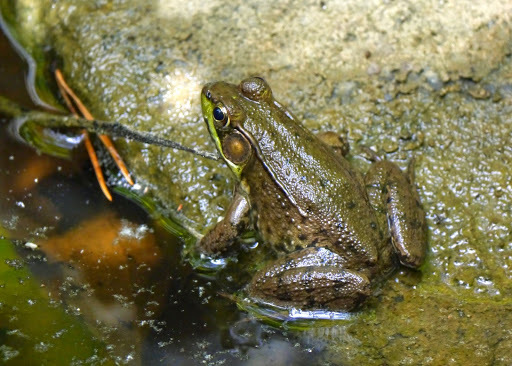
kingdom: Animalia
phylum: Chordata
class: Amphibia
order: Anura
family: Ranidae
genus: Lithobates
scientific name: Lithobates clamitans
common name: Green frog
